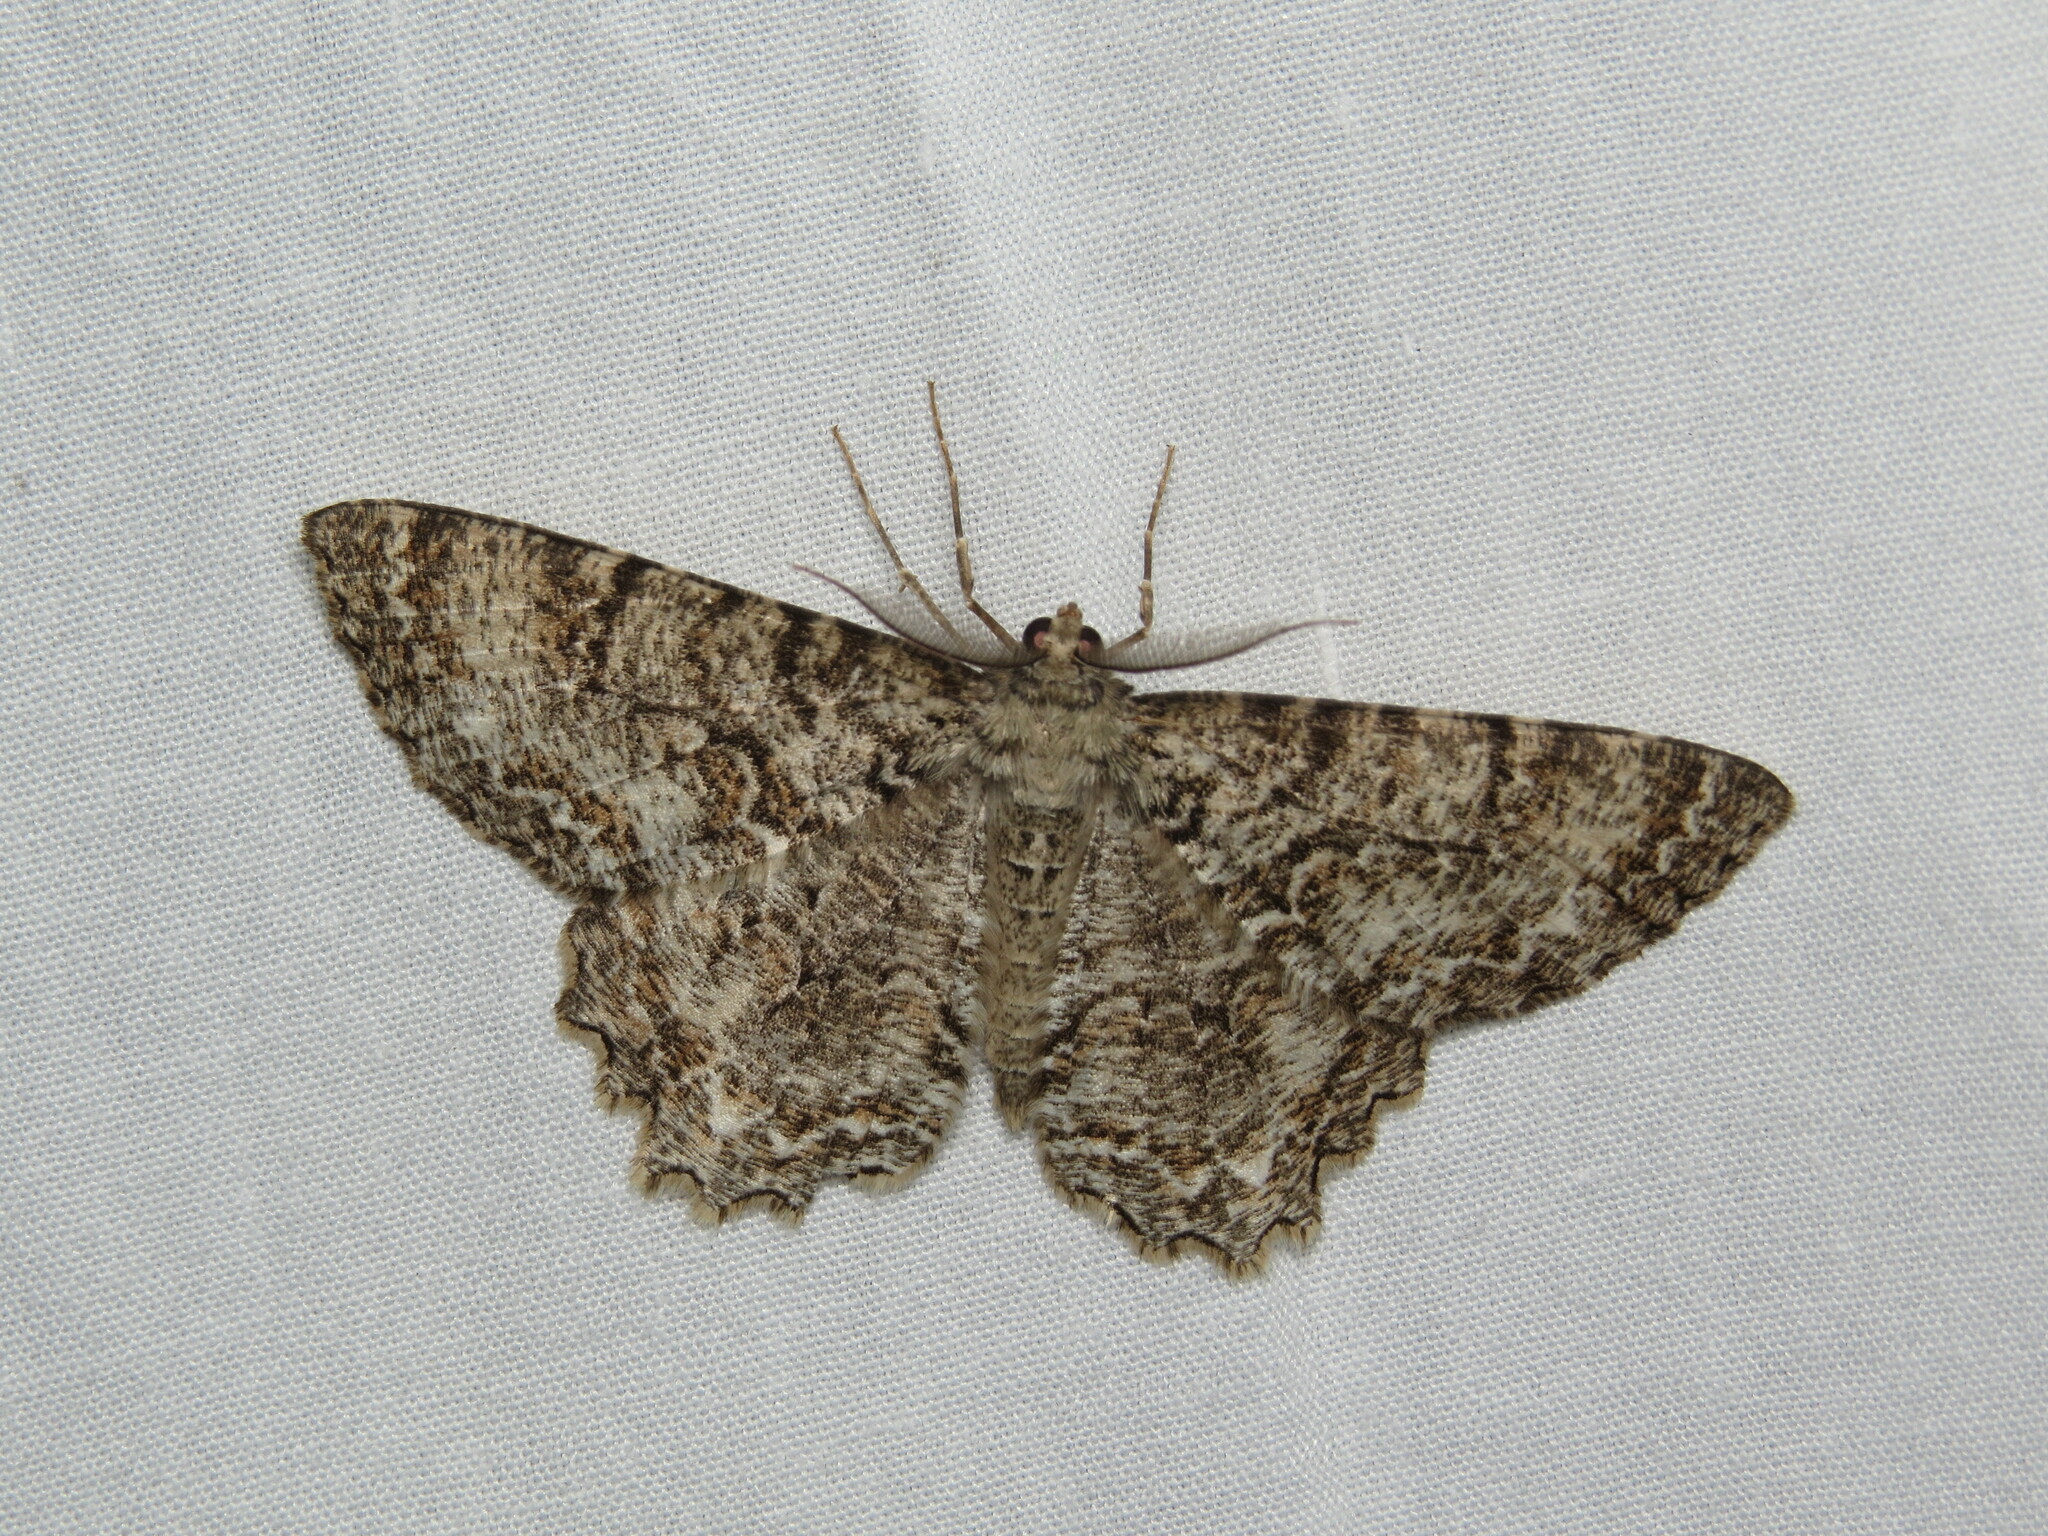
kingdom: Animalia
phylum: Arthropoda
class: Insecta
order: Lepidoptera
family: Geometridae
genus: Epimecis
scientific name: Epimecis hortaria
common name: Tulip-tree beauty
